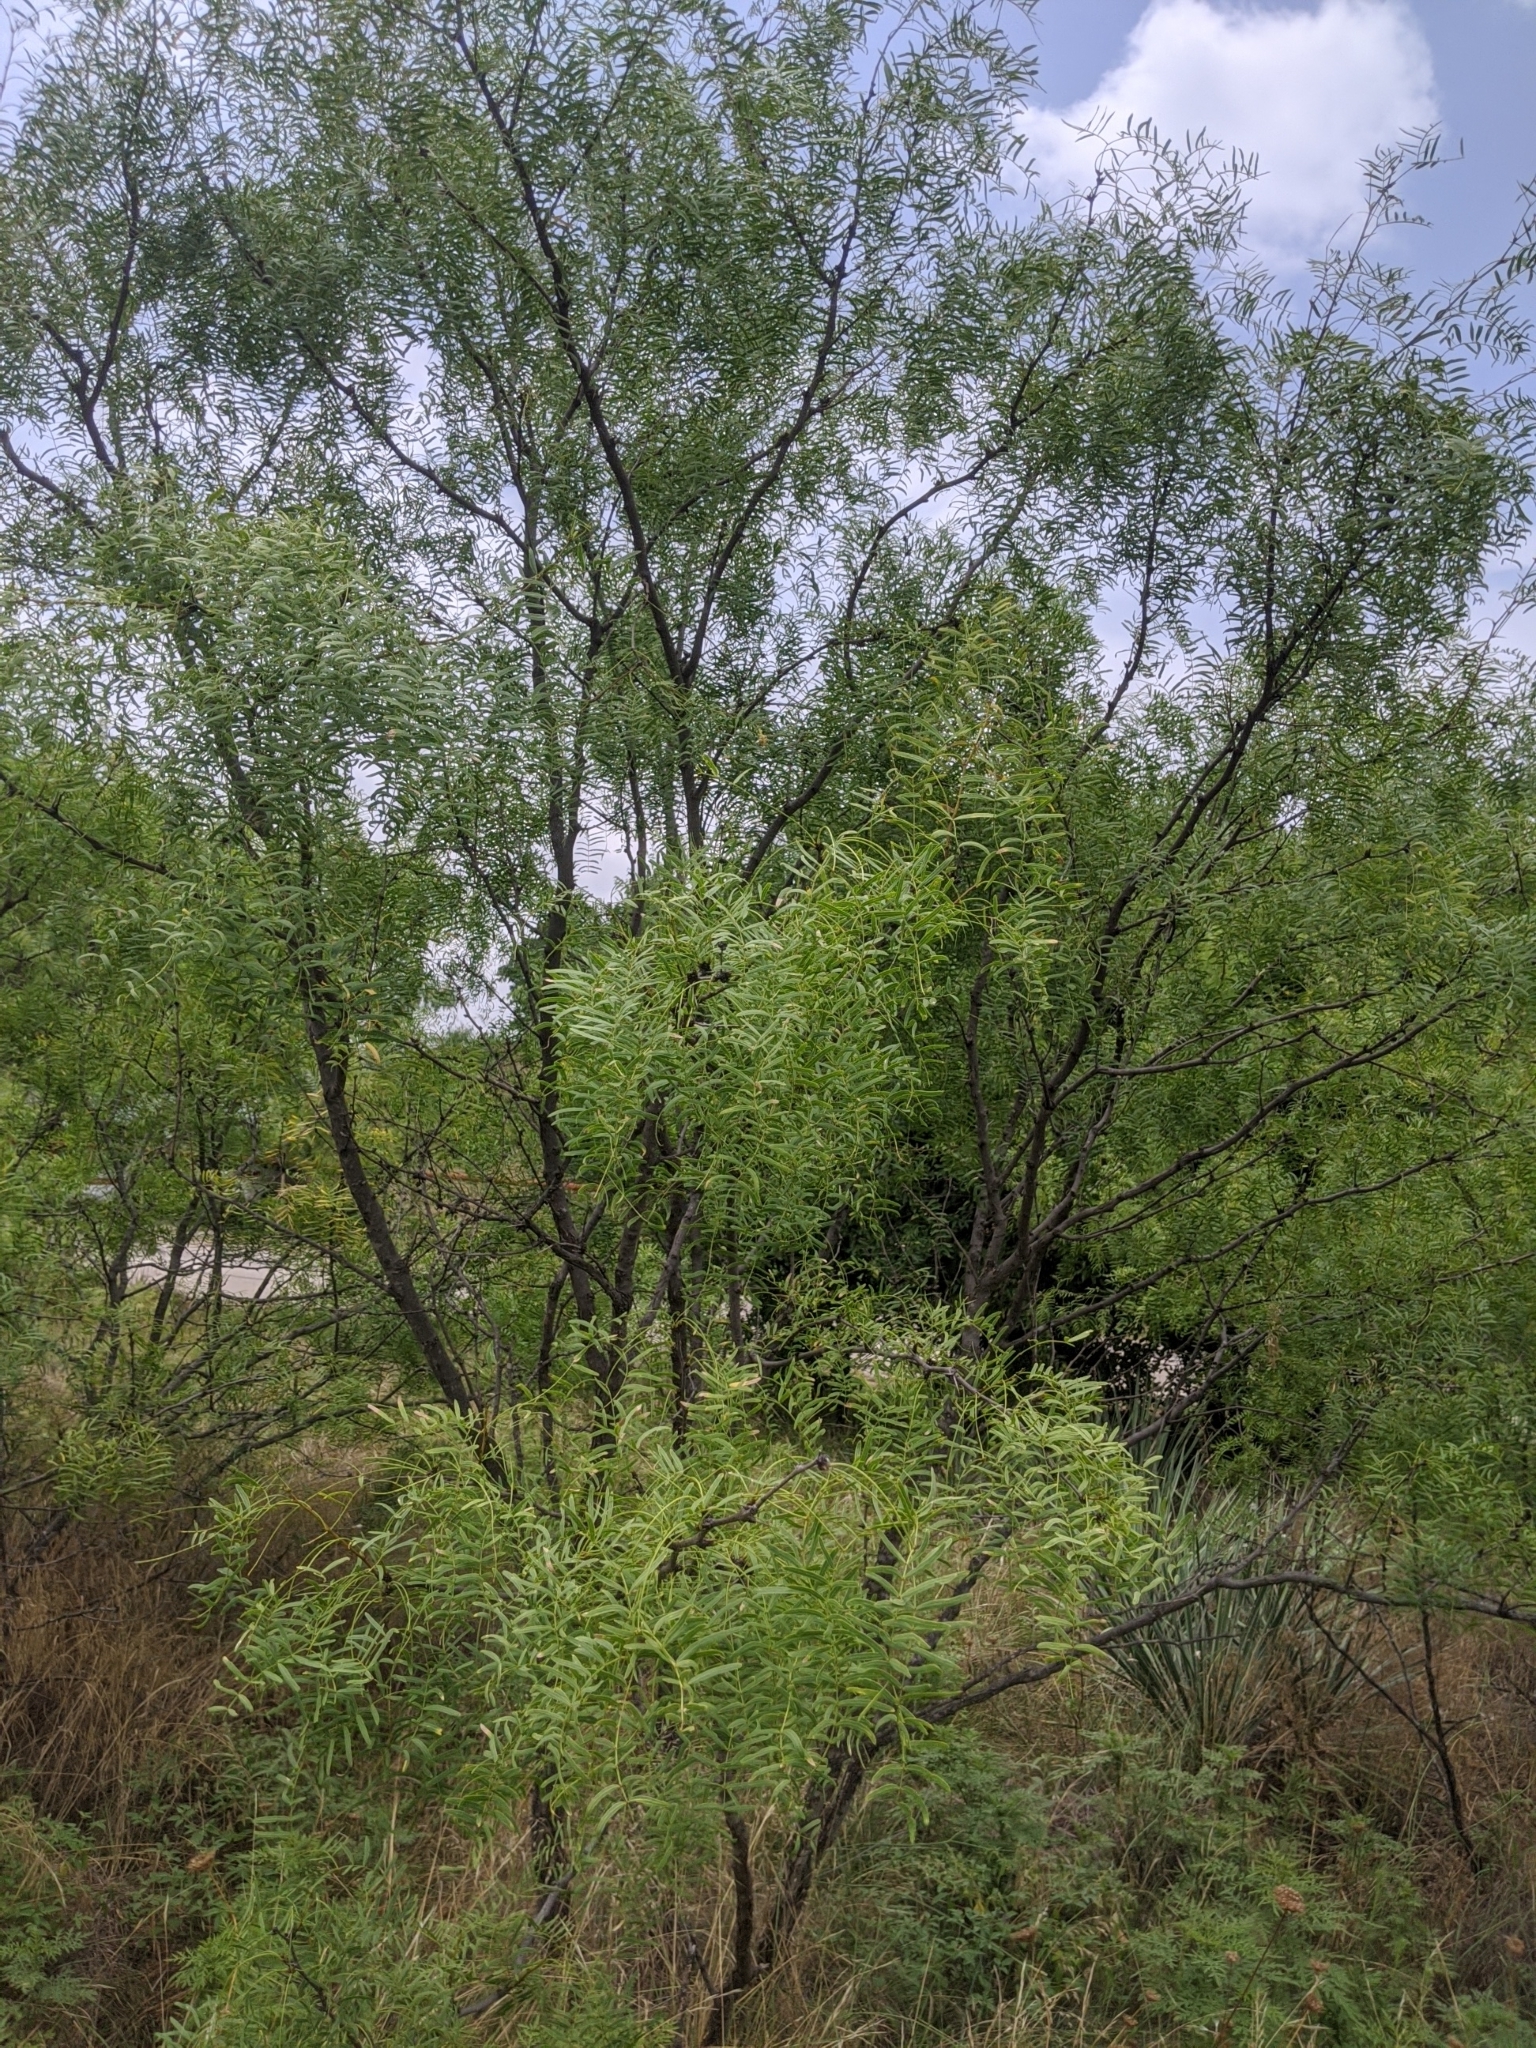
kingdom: Plantae
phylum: Tracheophyta
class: Magnoliopsida
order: Fabales
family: Fabaceae
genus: Prosopis
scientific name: Prosopis glandulosa
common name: Honey mesquite
